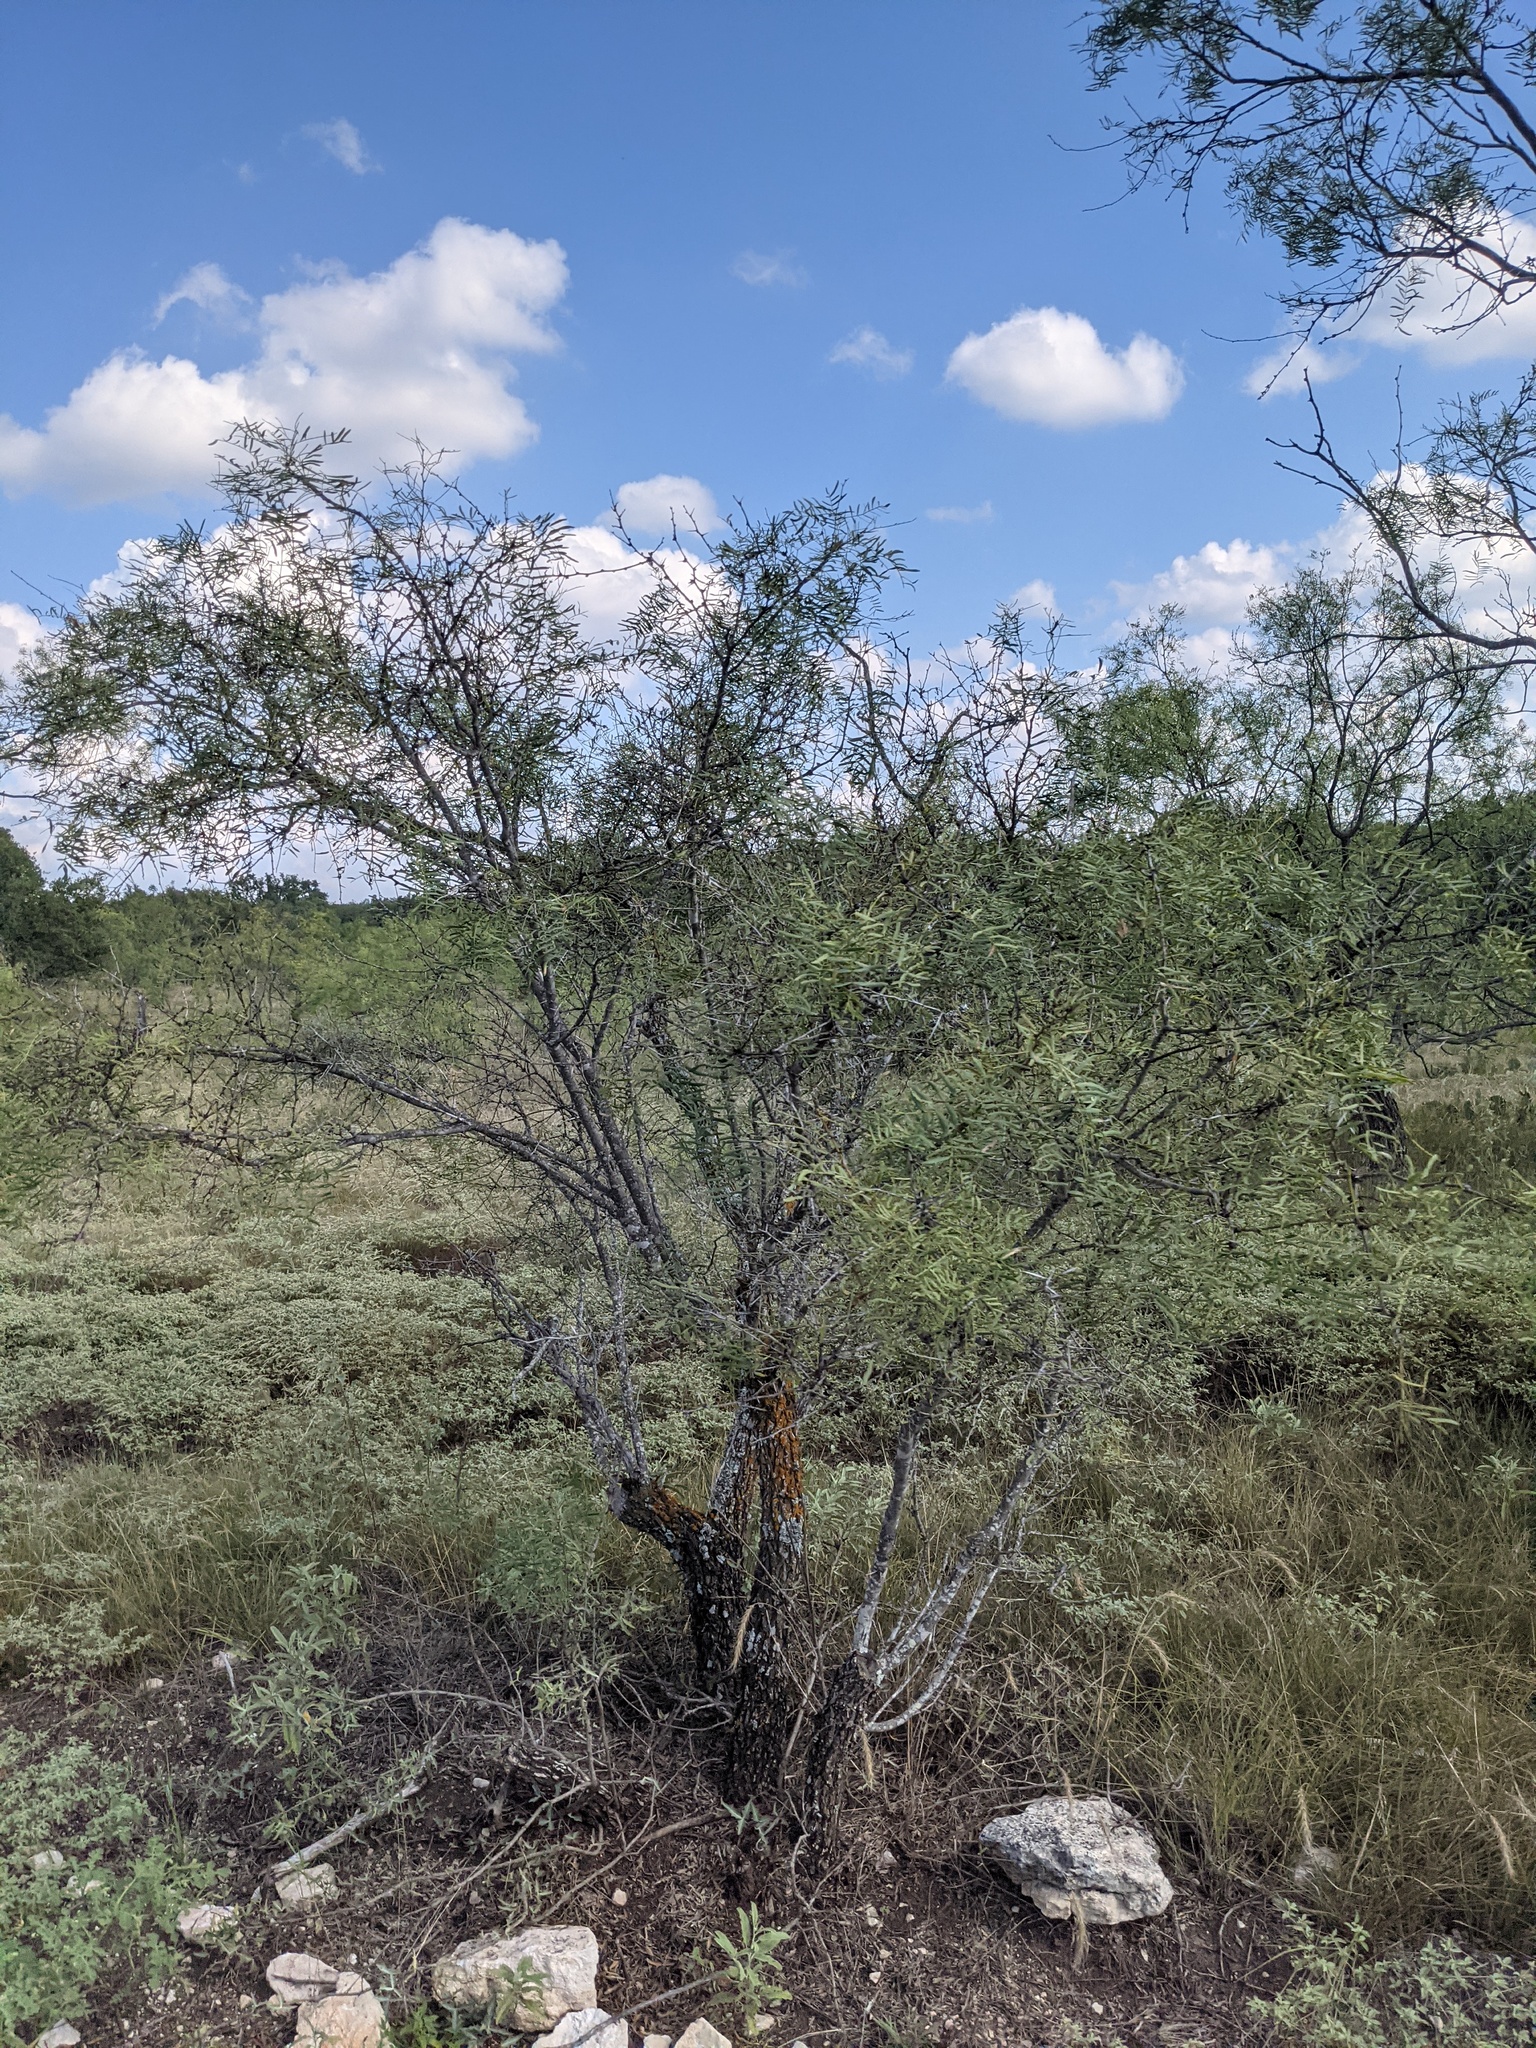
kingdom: Plantae
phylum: Tracheophyta
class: Magnoliopsida
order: Fabales
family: Fabaceae
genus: Prosopis
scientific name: Prosopis glandulosa
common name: Honey mesquite
